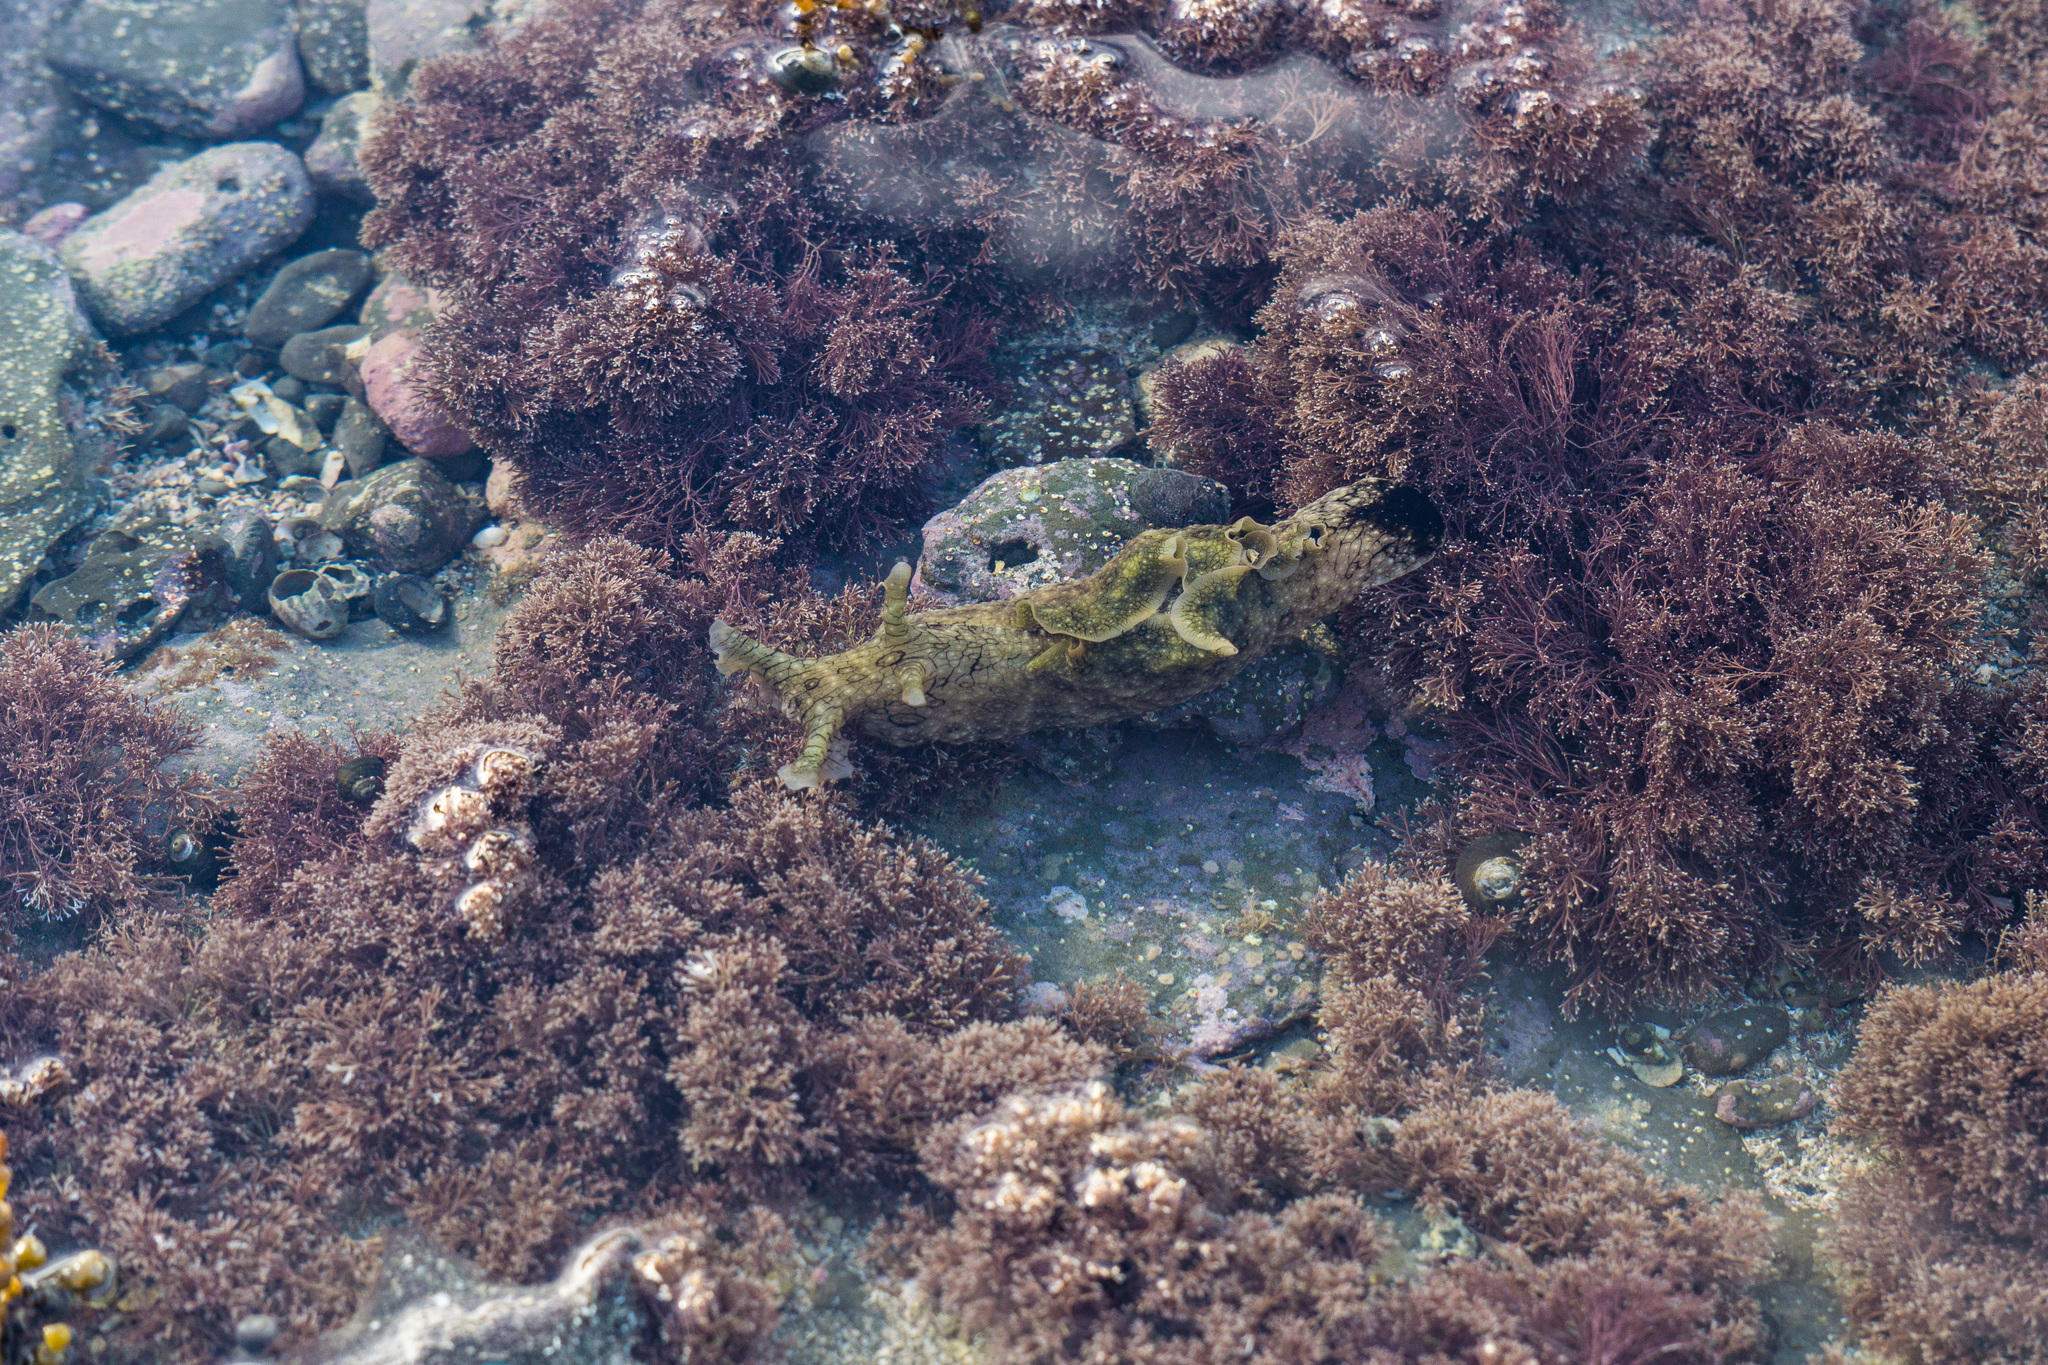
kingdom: Animalia
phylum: Mollusca
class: Gastropoda
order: Aplysiida
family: Aplysiidae
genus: Aplysia
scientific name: Aplysia argus
